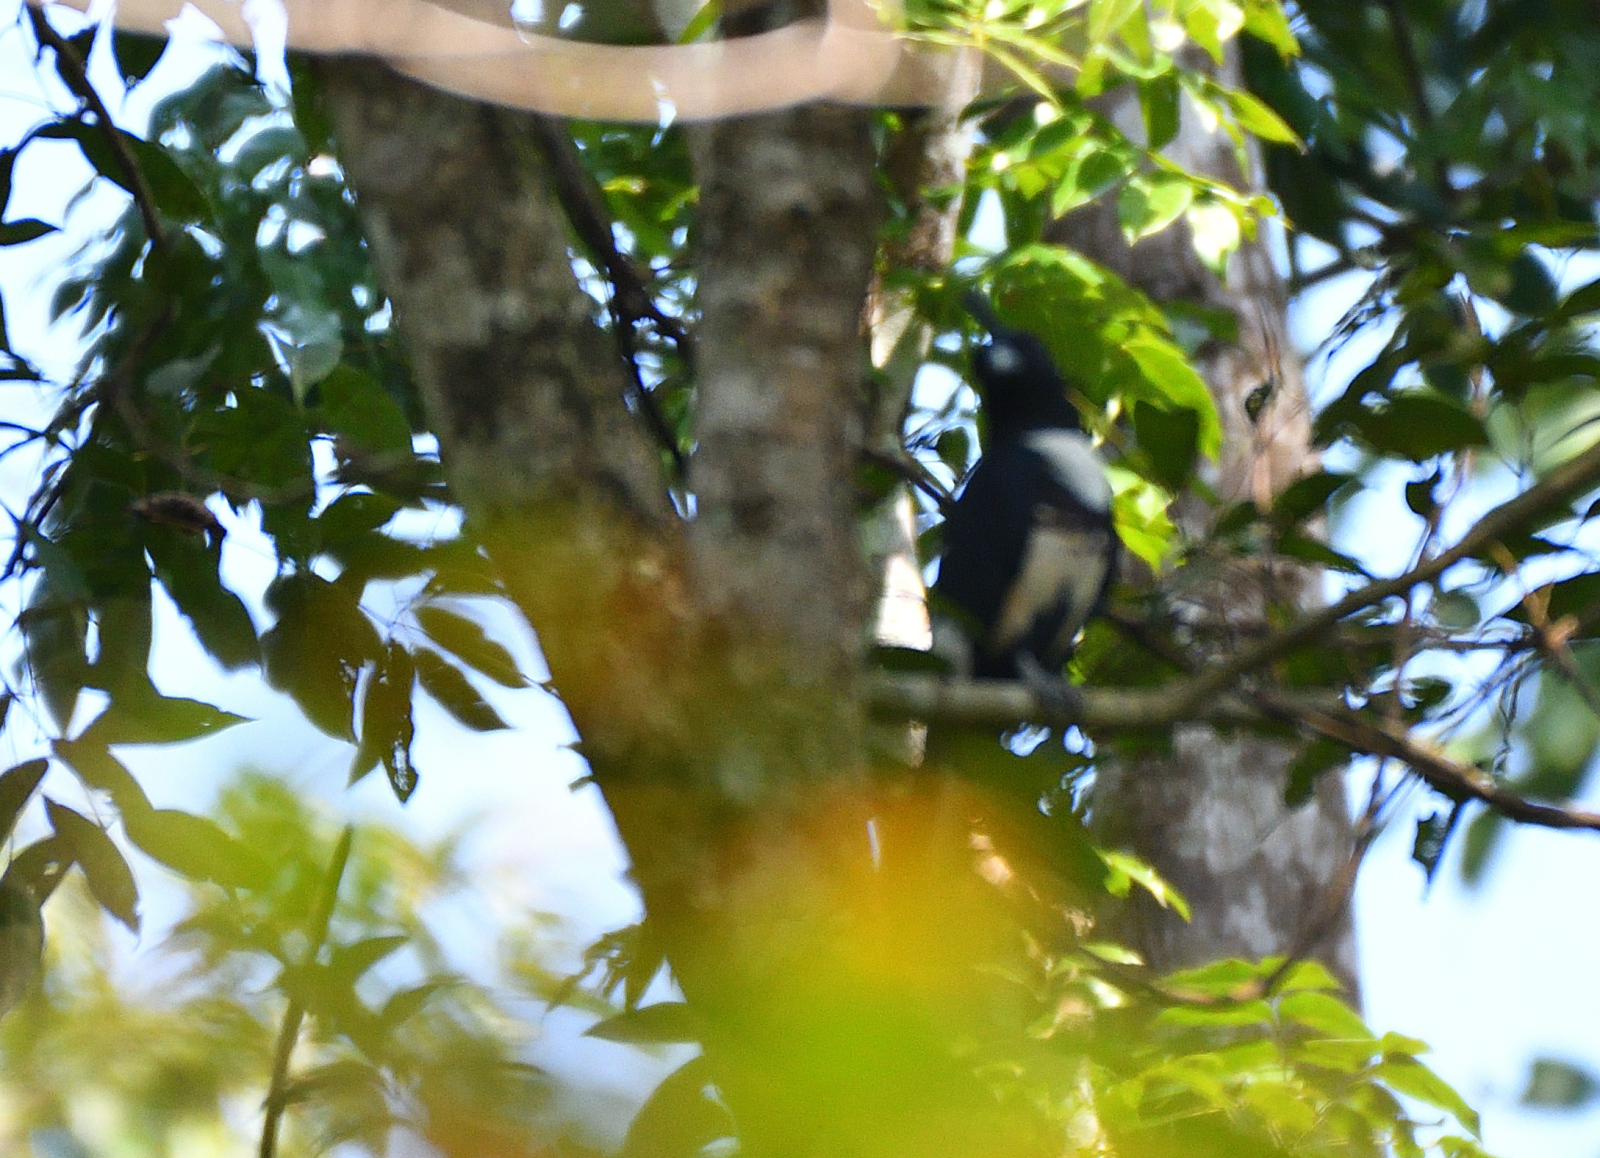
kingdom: Animalia
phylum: Chordata
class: Aves
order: Accipitriformes
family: Accipitridae
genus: Aviceda
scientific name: Aviceda leuphotes
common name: Black baza
